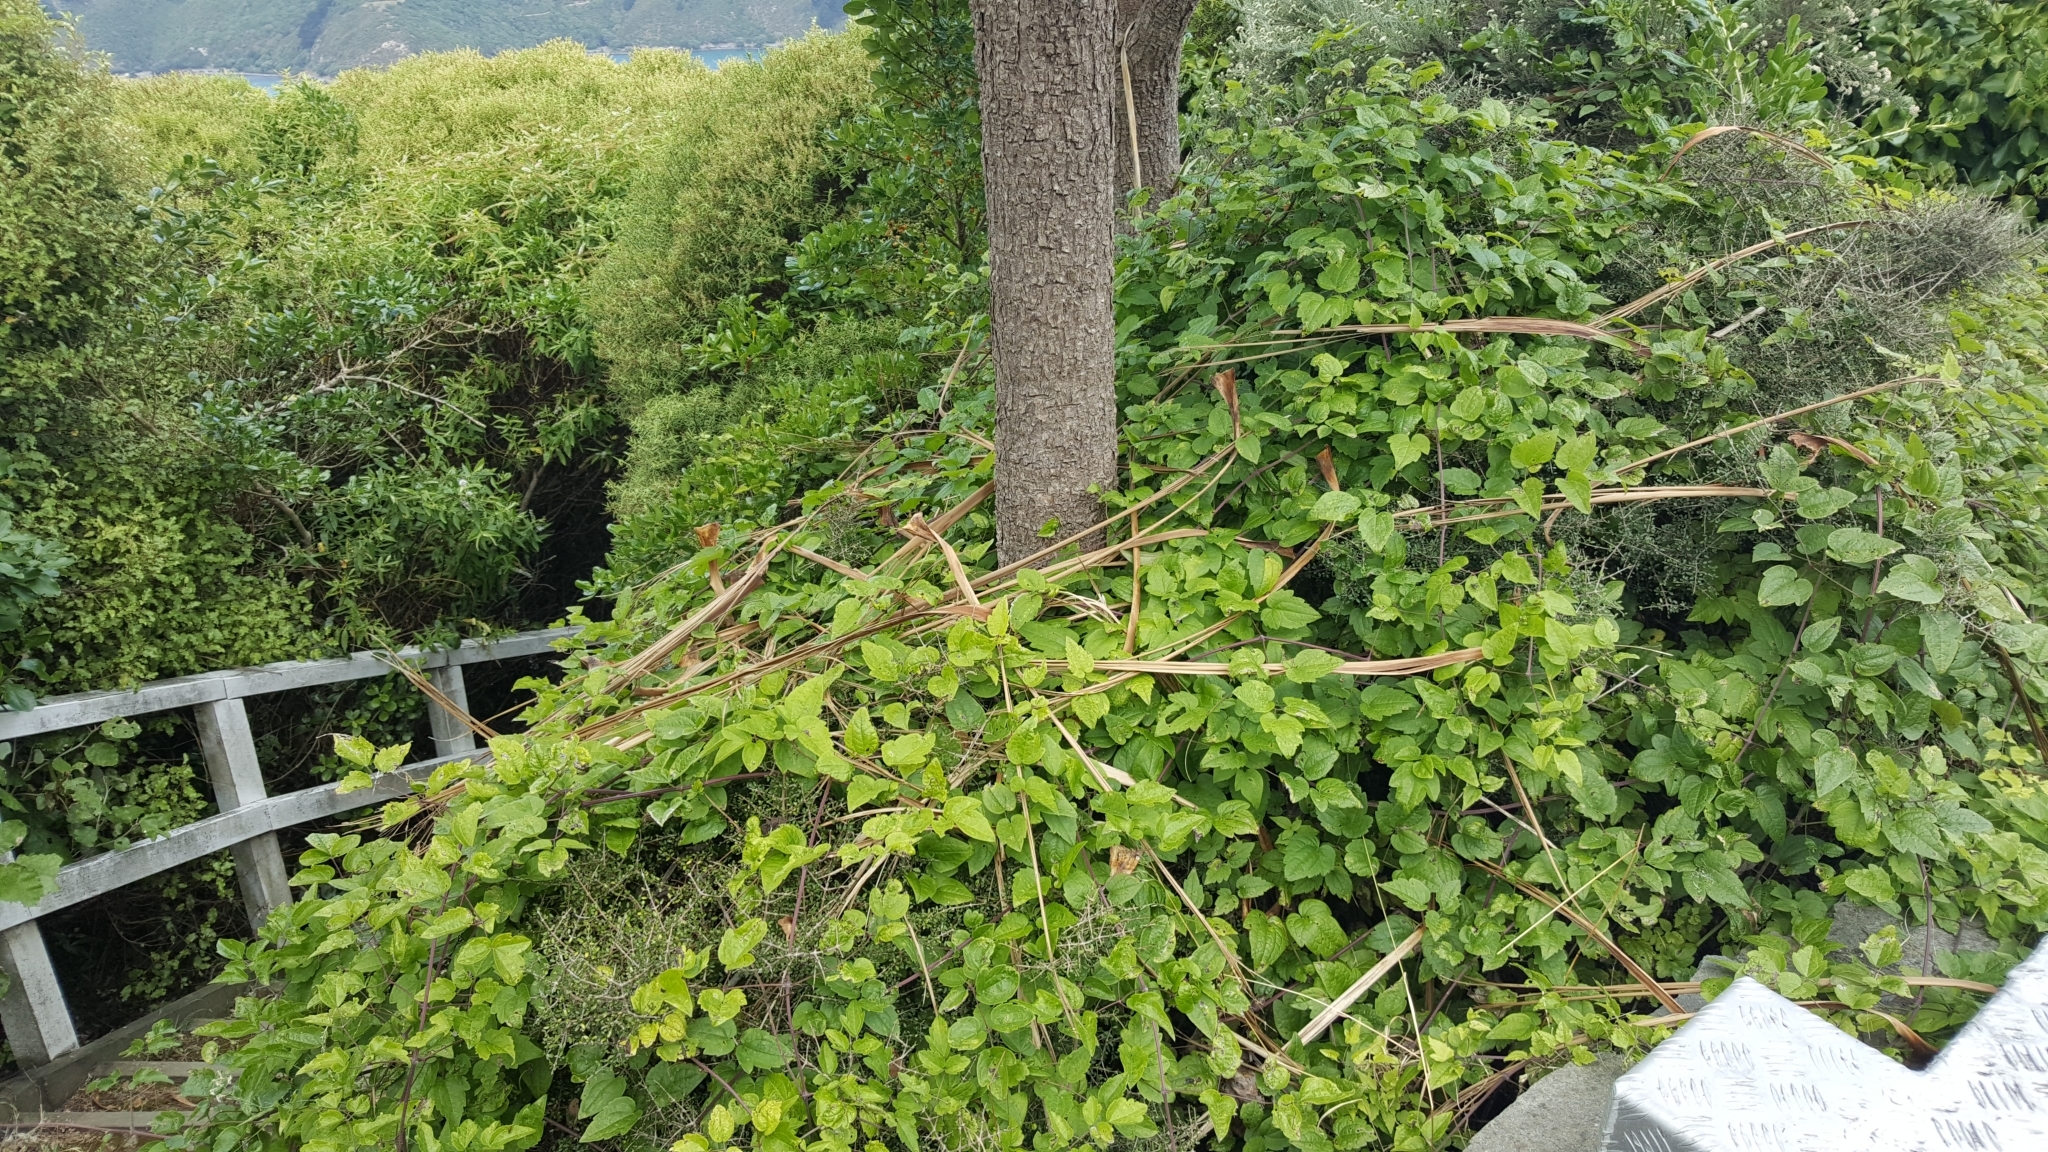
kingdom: Plantae
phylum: Tracheophyta
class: Magnoliopsida
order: Ranunculales
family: Ranunculaceae
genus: Clematis
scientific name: Clematis vitalba
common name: Evergreen clematis
